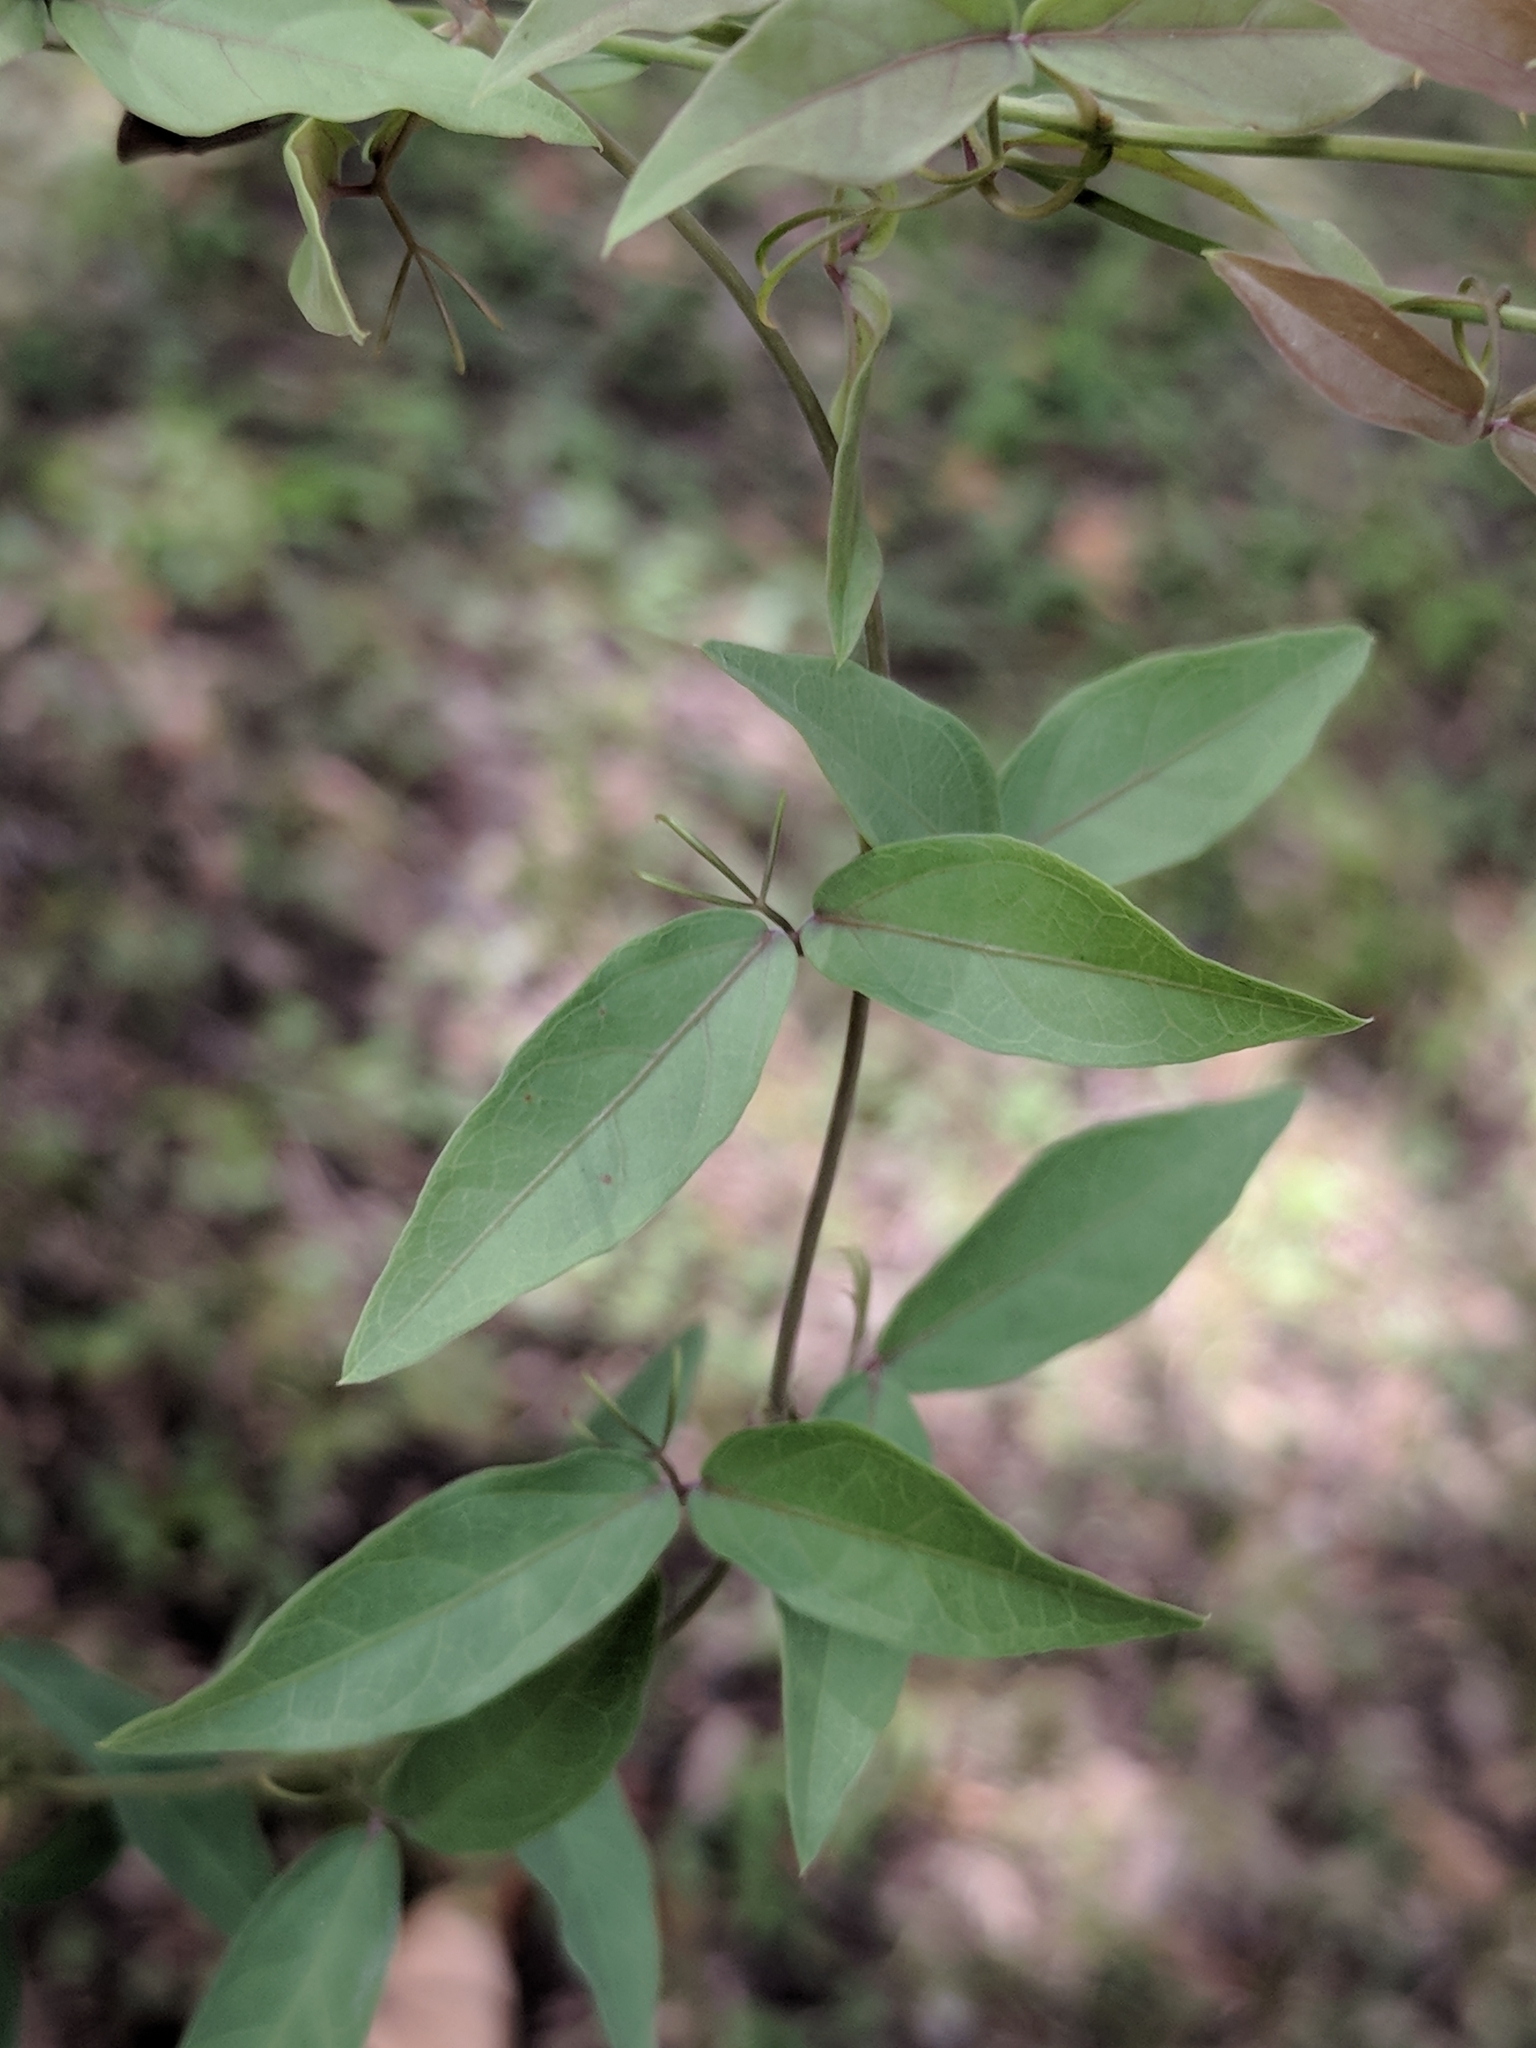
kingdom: Plantae
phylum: Tracheophyta
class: Magnoliopsida
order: Lamiales
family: Bignoniaceae
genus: Dolichandra
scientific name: Dolichandra unguis-cati
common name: Catclaw vine
